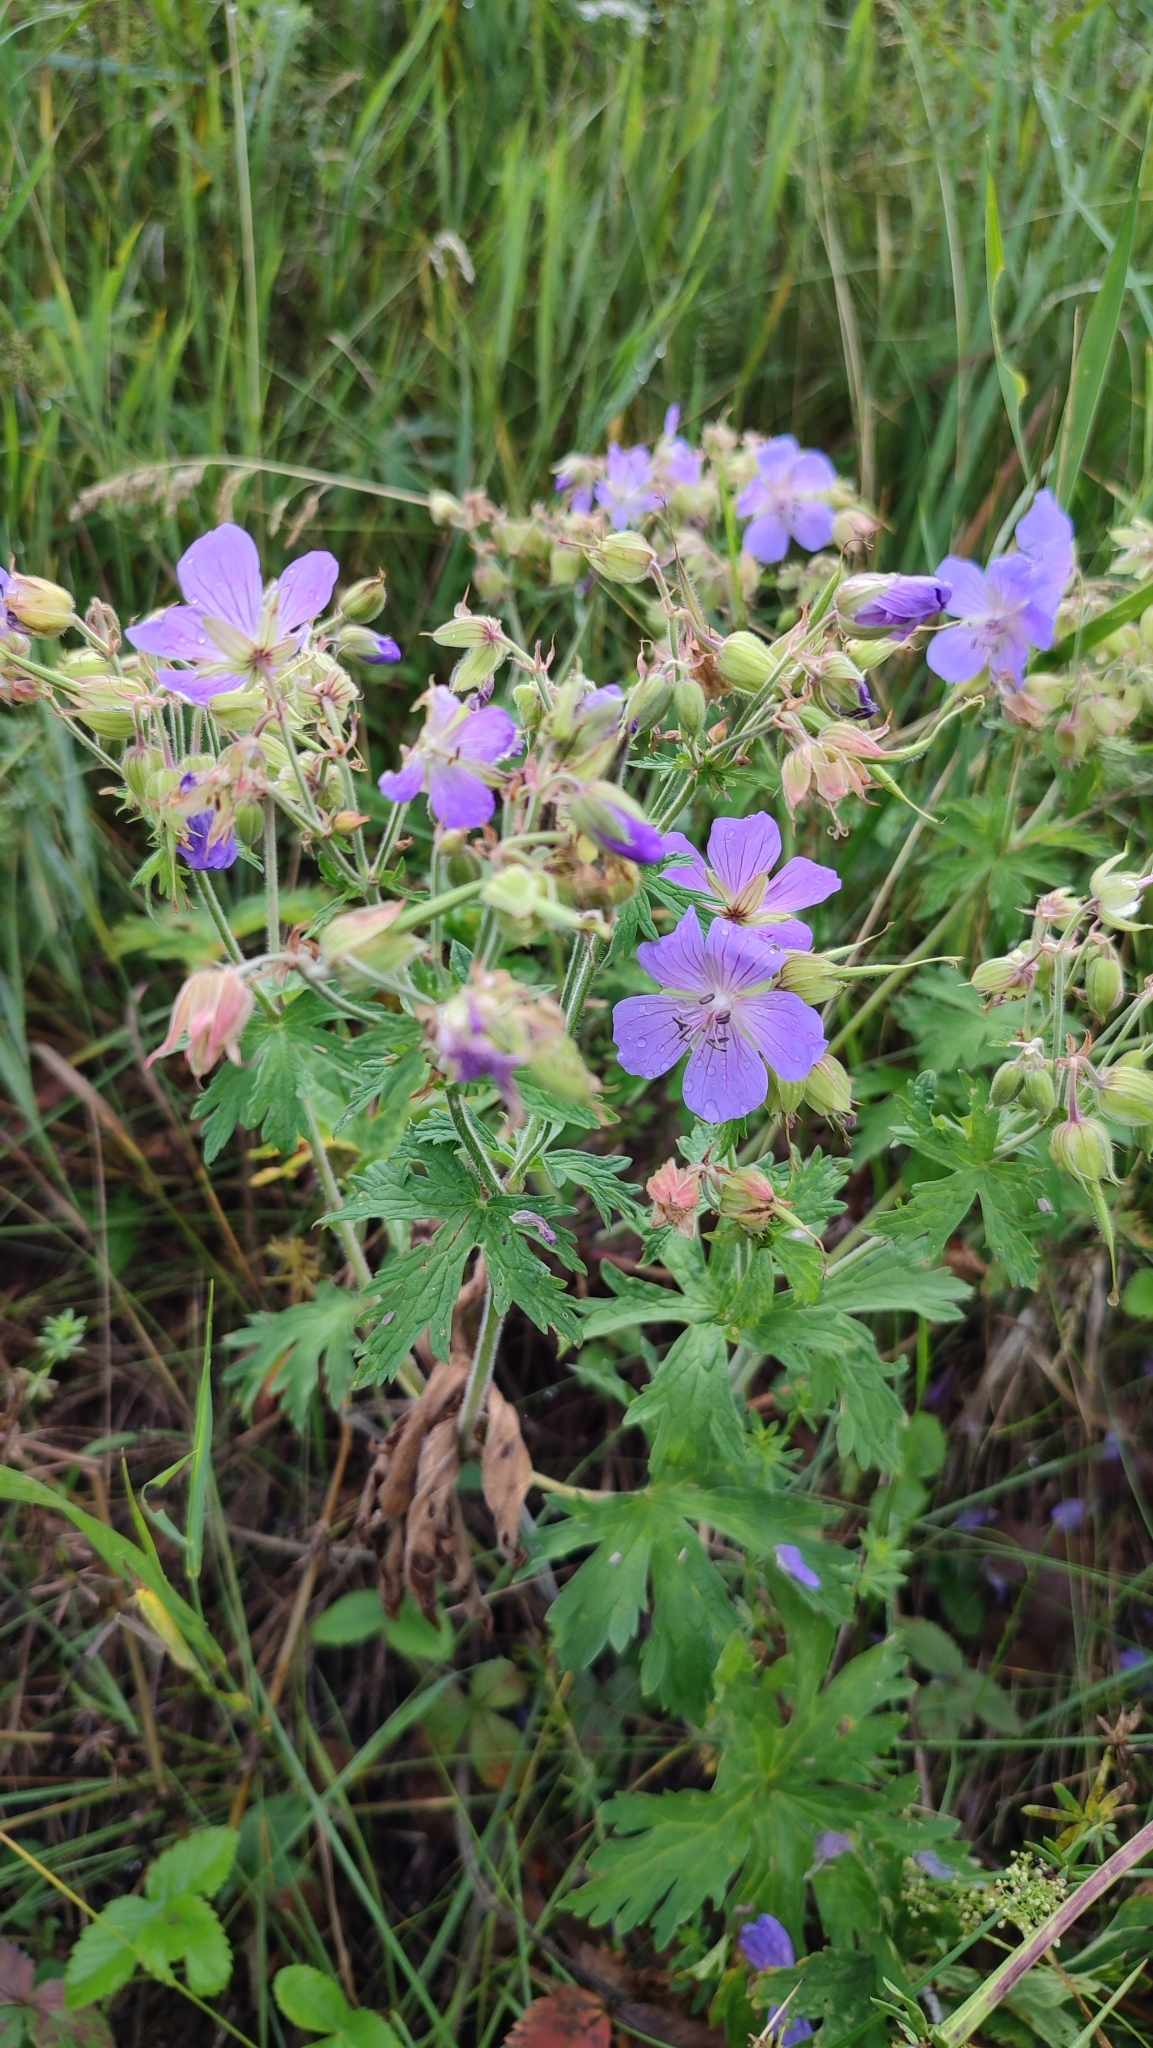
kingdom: Plantae
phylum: Tracheophyta
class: Magnoliopsida
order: Geraniales
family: Geraniaceae
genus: Geranium
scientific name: Geranium pratense
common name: Meadow crane's-bill
